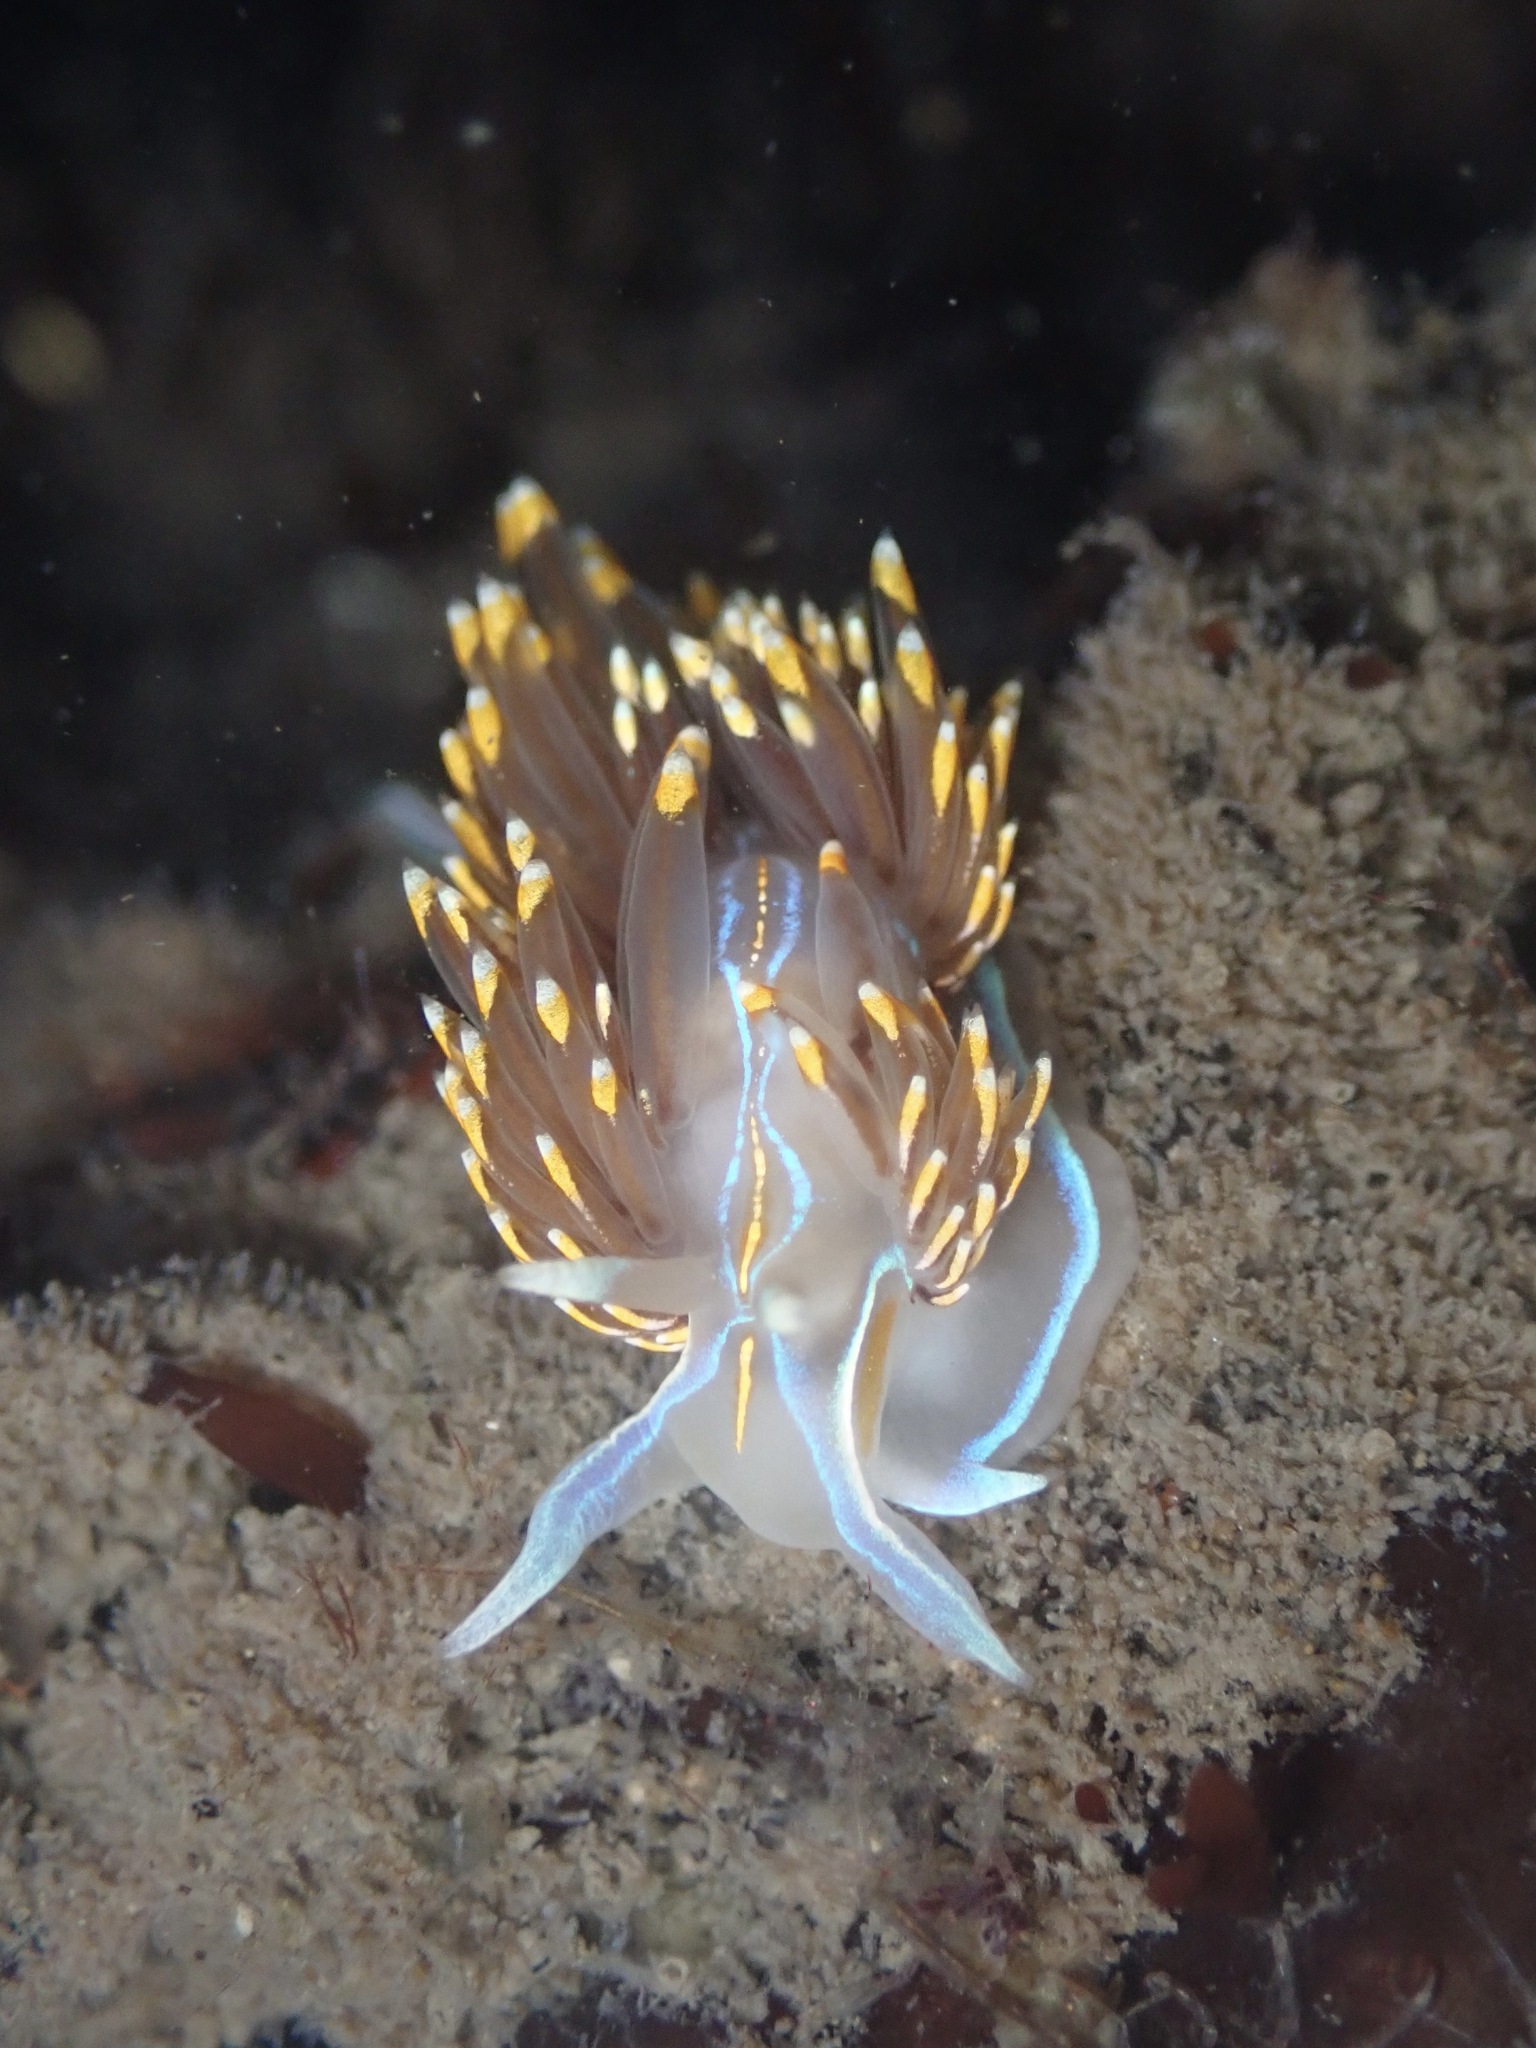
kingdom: Animalia
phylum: Mollusca
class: Gastropoda
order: Nudibranchia
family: Myrrhinidae
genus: Hermissenda
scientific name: Hermissenda opalescens
